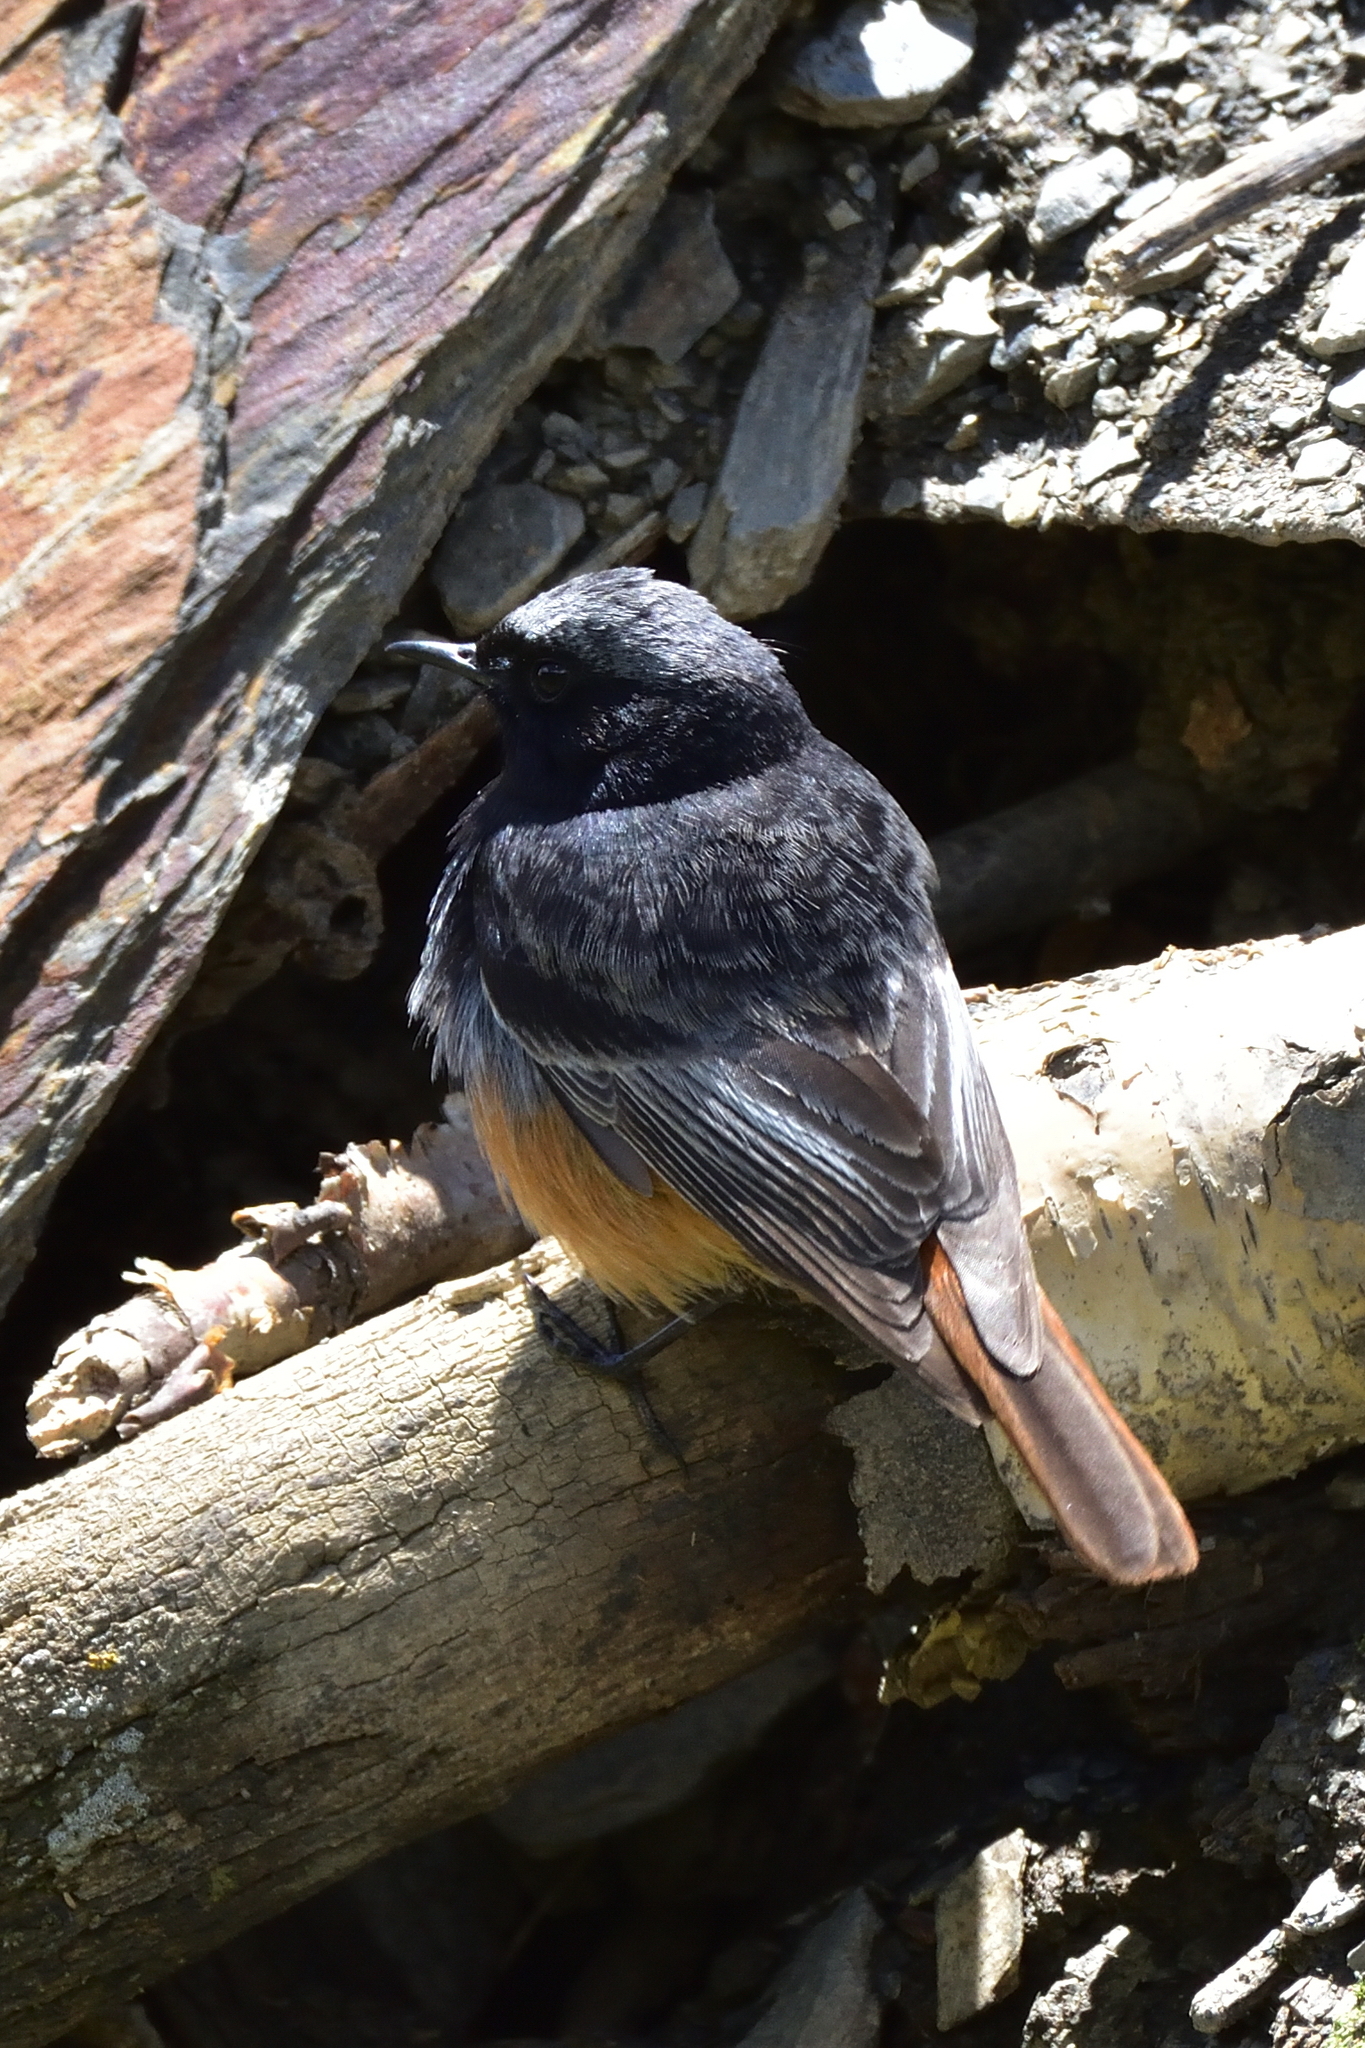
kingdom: Animalia
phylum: Chordata
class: Aves
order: Passeriformes
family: Muscicapidae
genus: Phoenicurus
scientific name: Phoenicurus ochruros
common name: Black redstart
